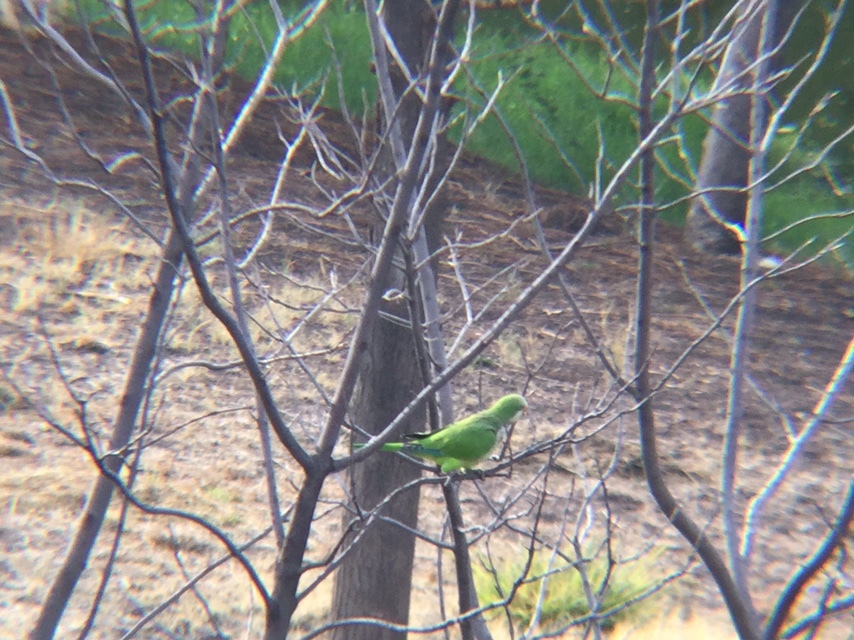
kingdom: Animalia
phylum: Chordata
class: Aves
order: Psittaciformes
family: Psittacidae
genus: Myiopsitta
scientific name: Myiopsitta monachus
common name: Monk parakeet
